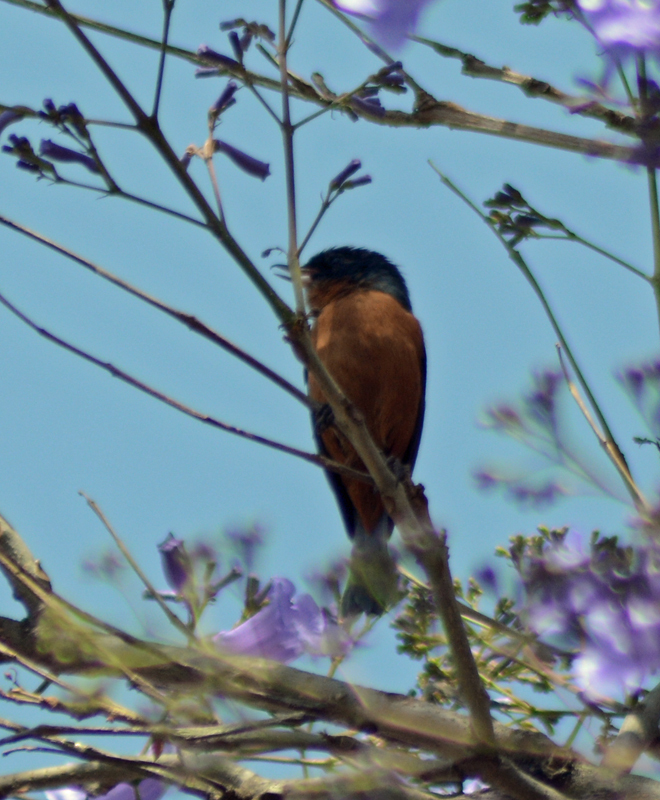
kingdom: Animalia
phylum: Chordata
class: Aves
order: Passeriformes
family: Thraupidae
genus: Diglossa
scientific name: Diglossa baritula
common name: Cinnamon-bellied flowerpiercer
